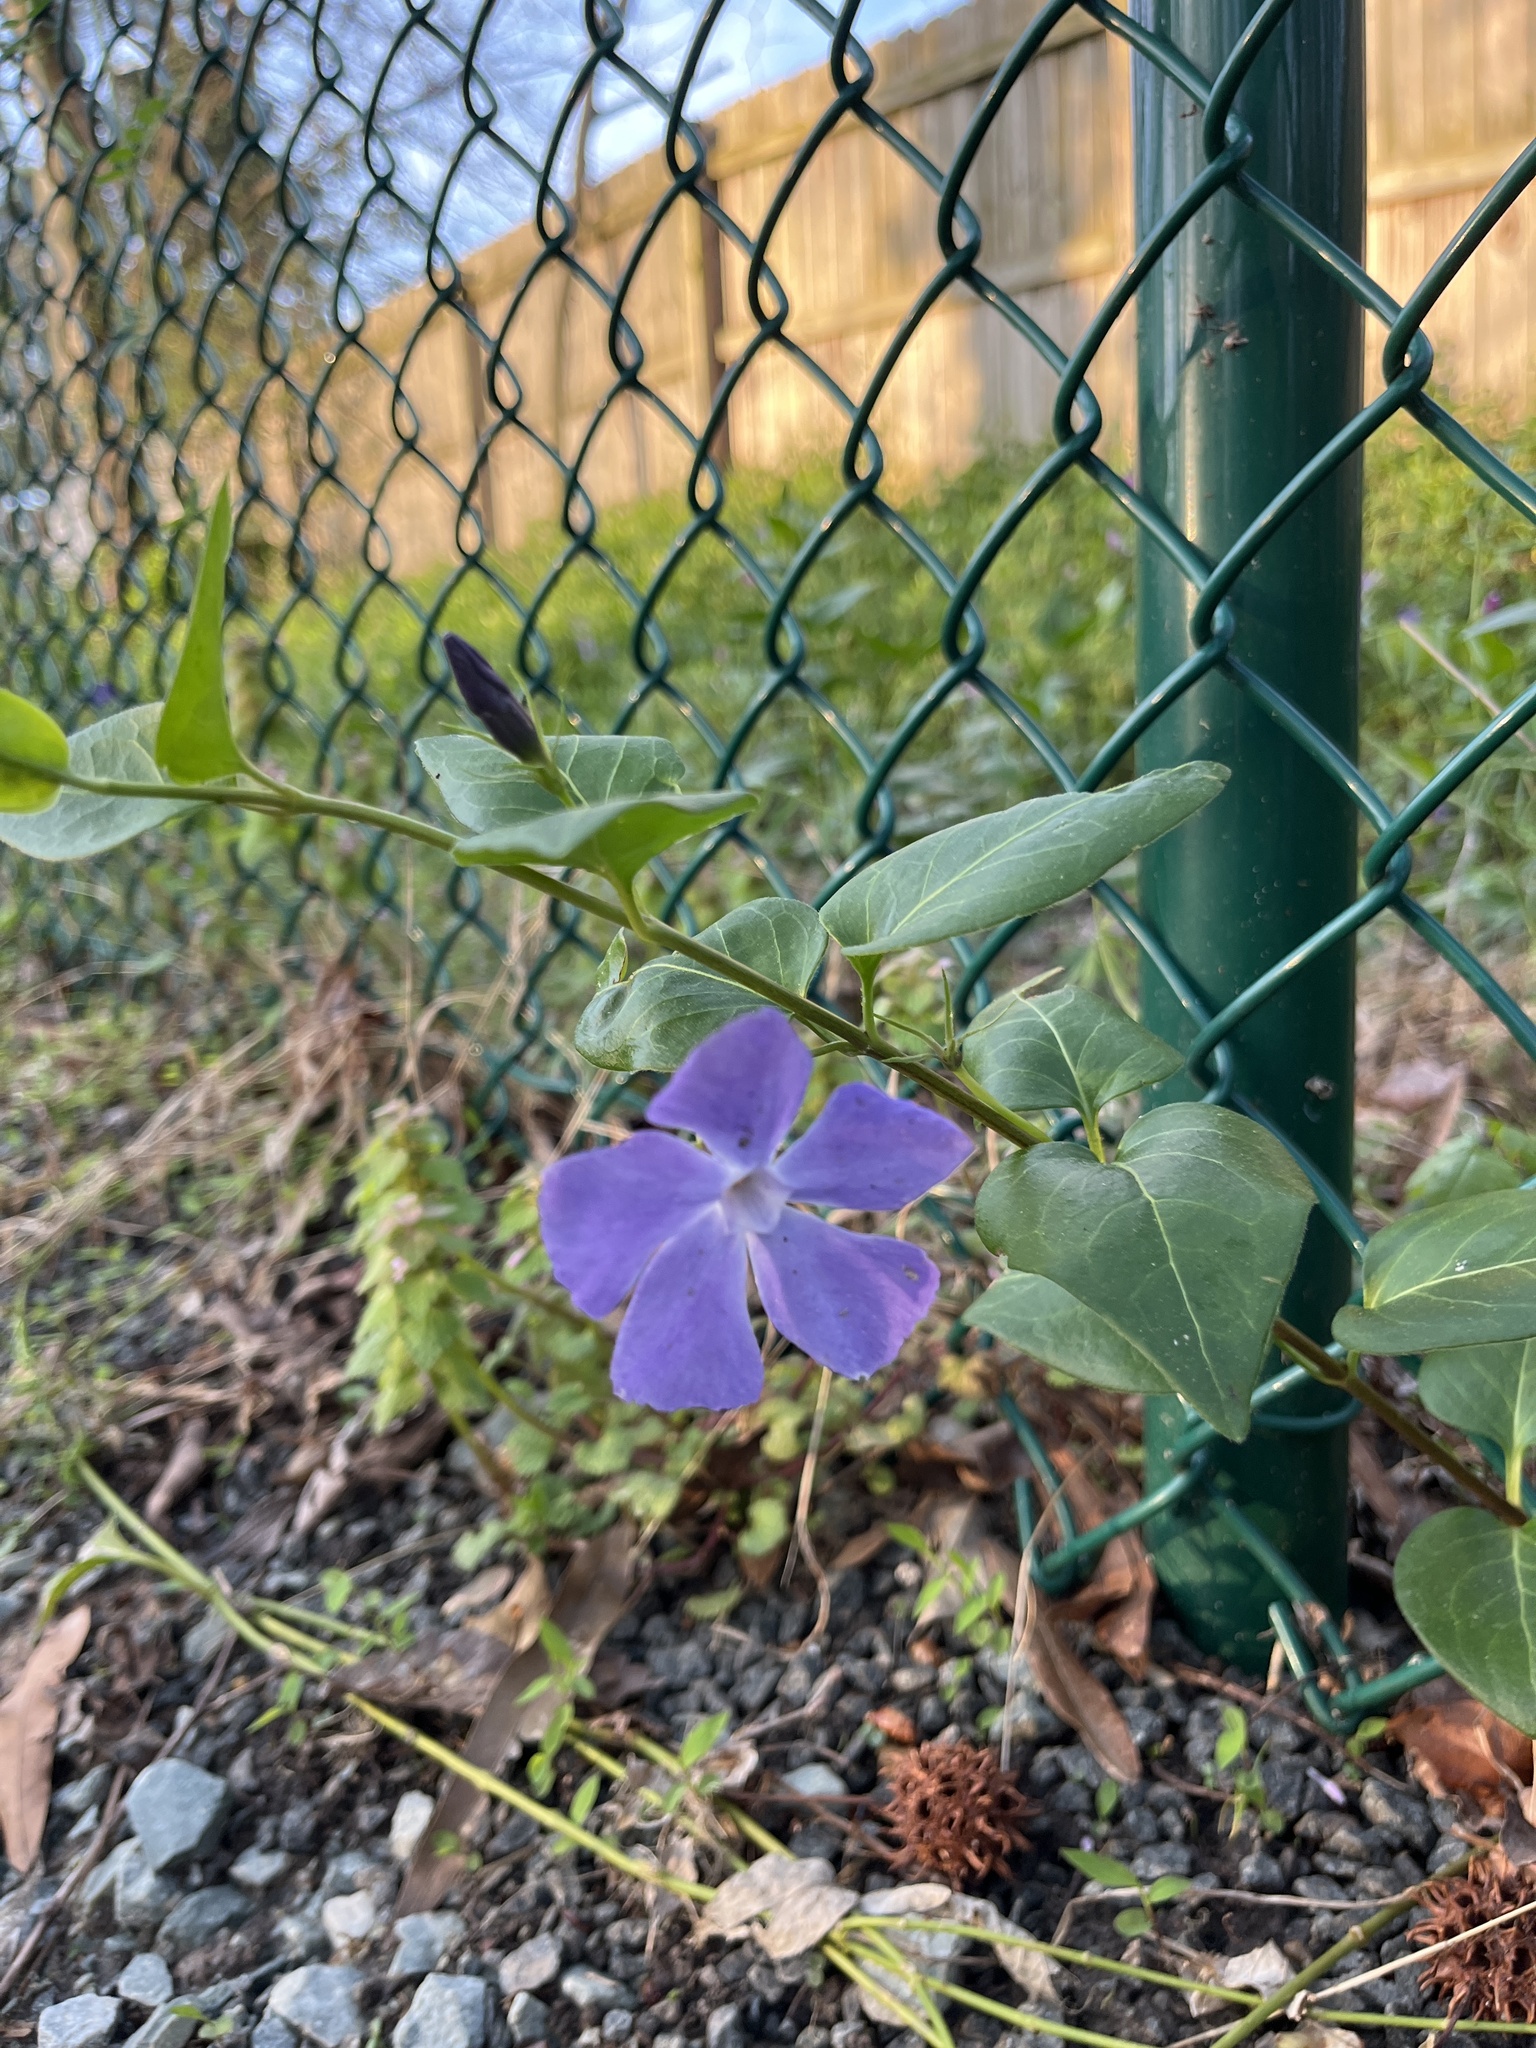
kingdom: Plantae
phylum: Tracheophyta
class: Magnoliopsida
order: Gentianales
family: Apocynaceae
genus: Vinca
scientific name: Vinca major
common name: Greater periwinkle
